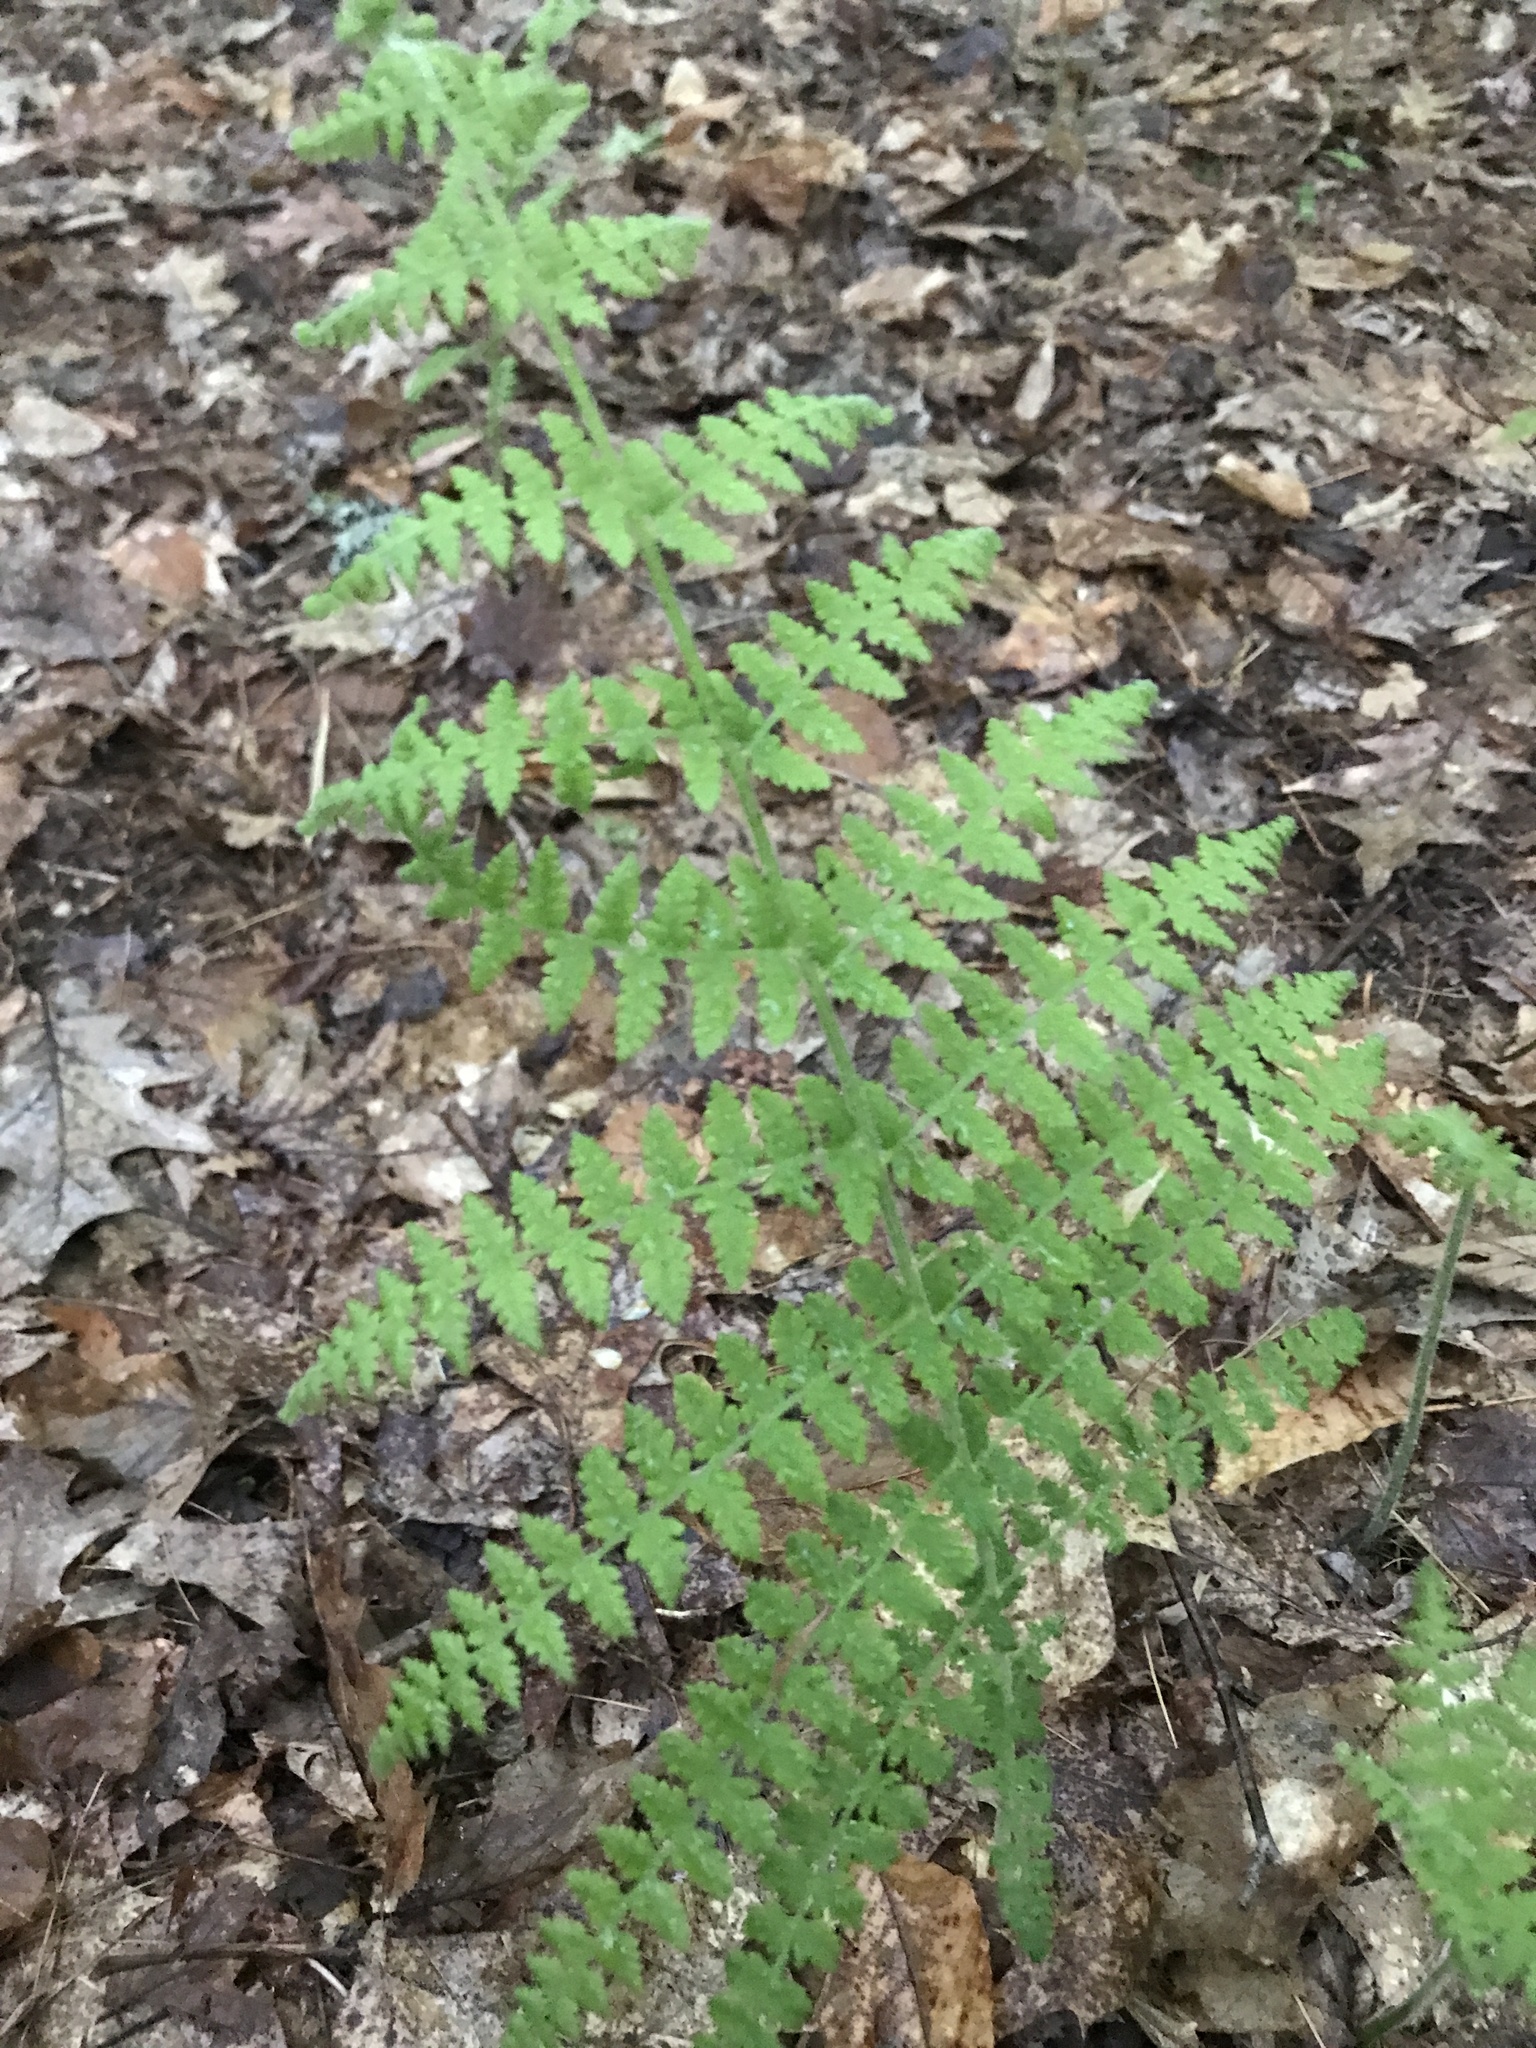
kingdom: Plantae
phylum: Tracheophyta
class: Polypodiopsida
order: Polypodiales
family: Dennstaedtiaceae
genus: Sitobolium
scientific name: Sitobolium punctilobum
